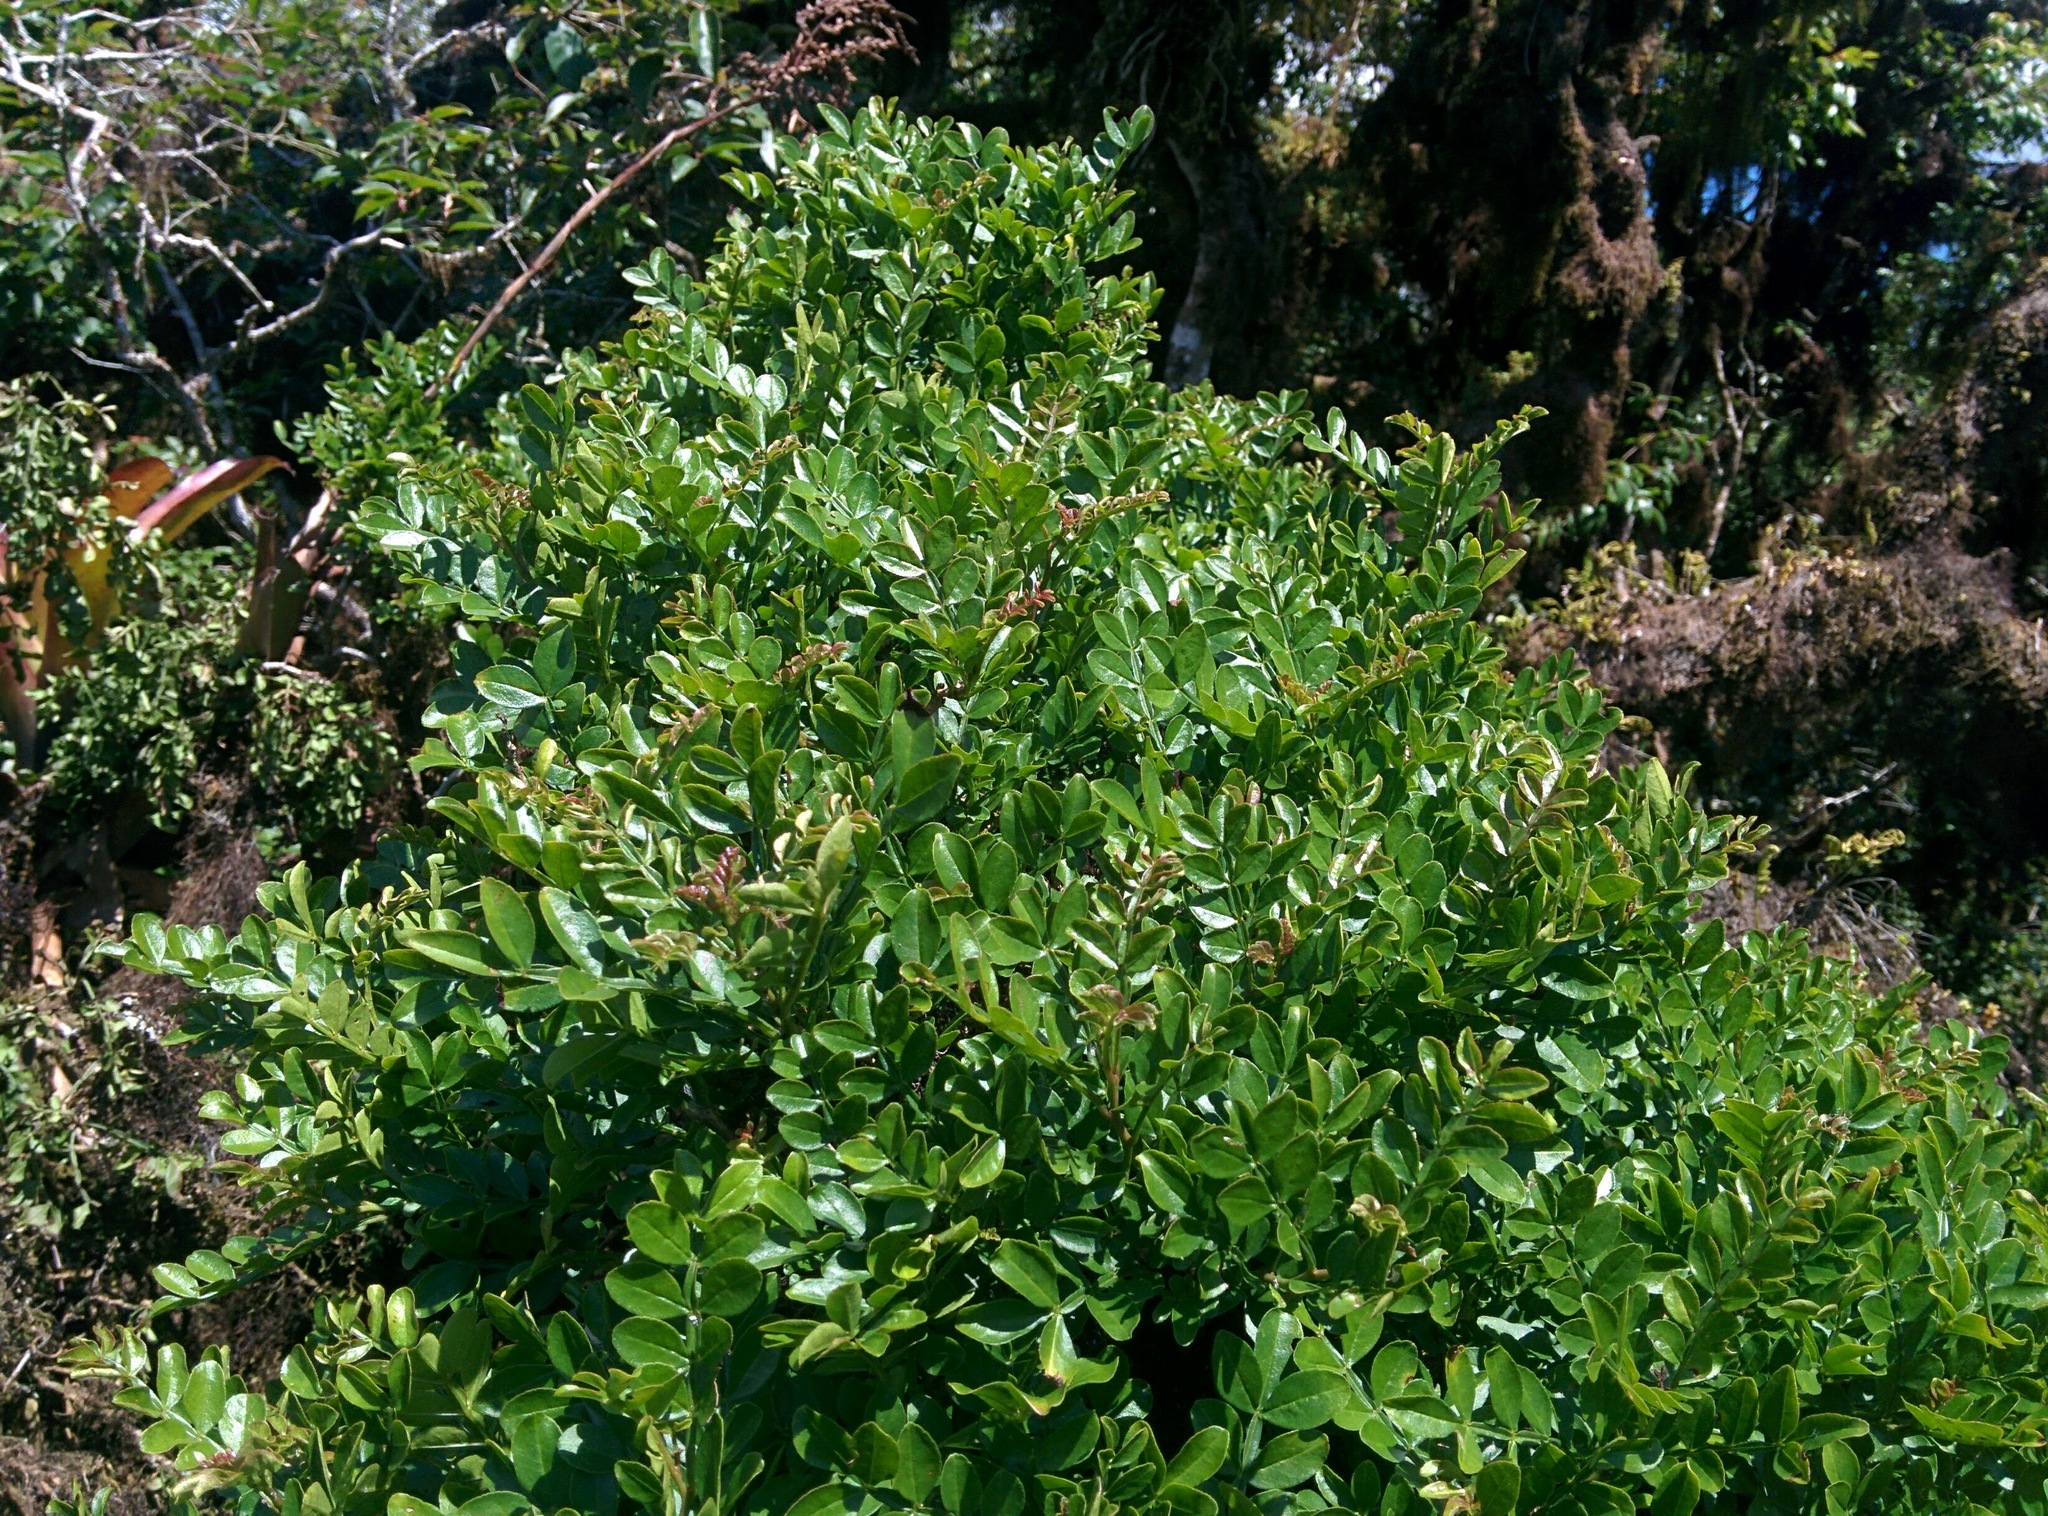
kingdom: Plantae
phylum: Tracheophyta
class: Magnoliopsida
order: Sapindales
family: Rutaceae
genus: Zanthoxylum
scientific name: Zanthoxylum fagara
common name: Lime prickly-ash
